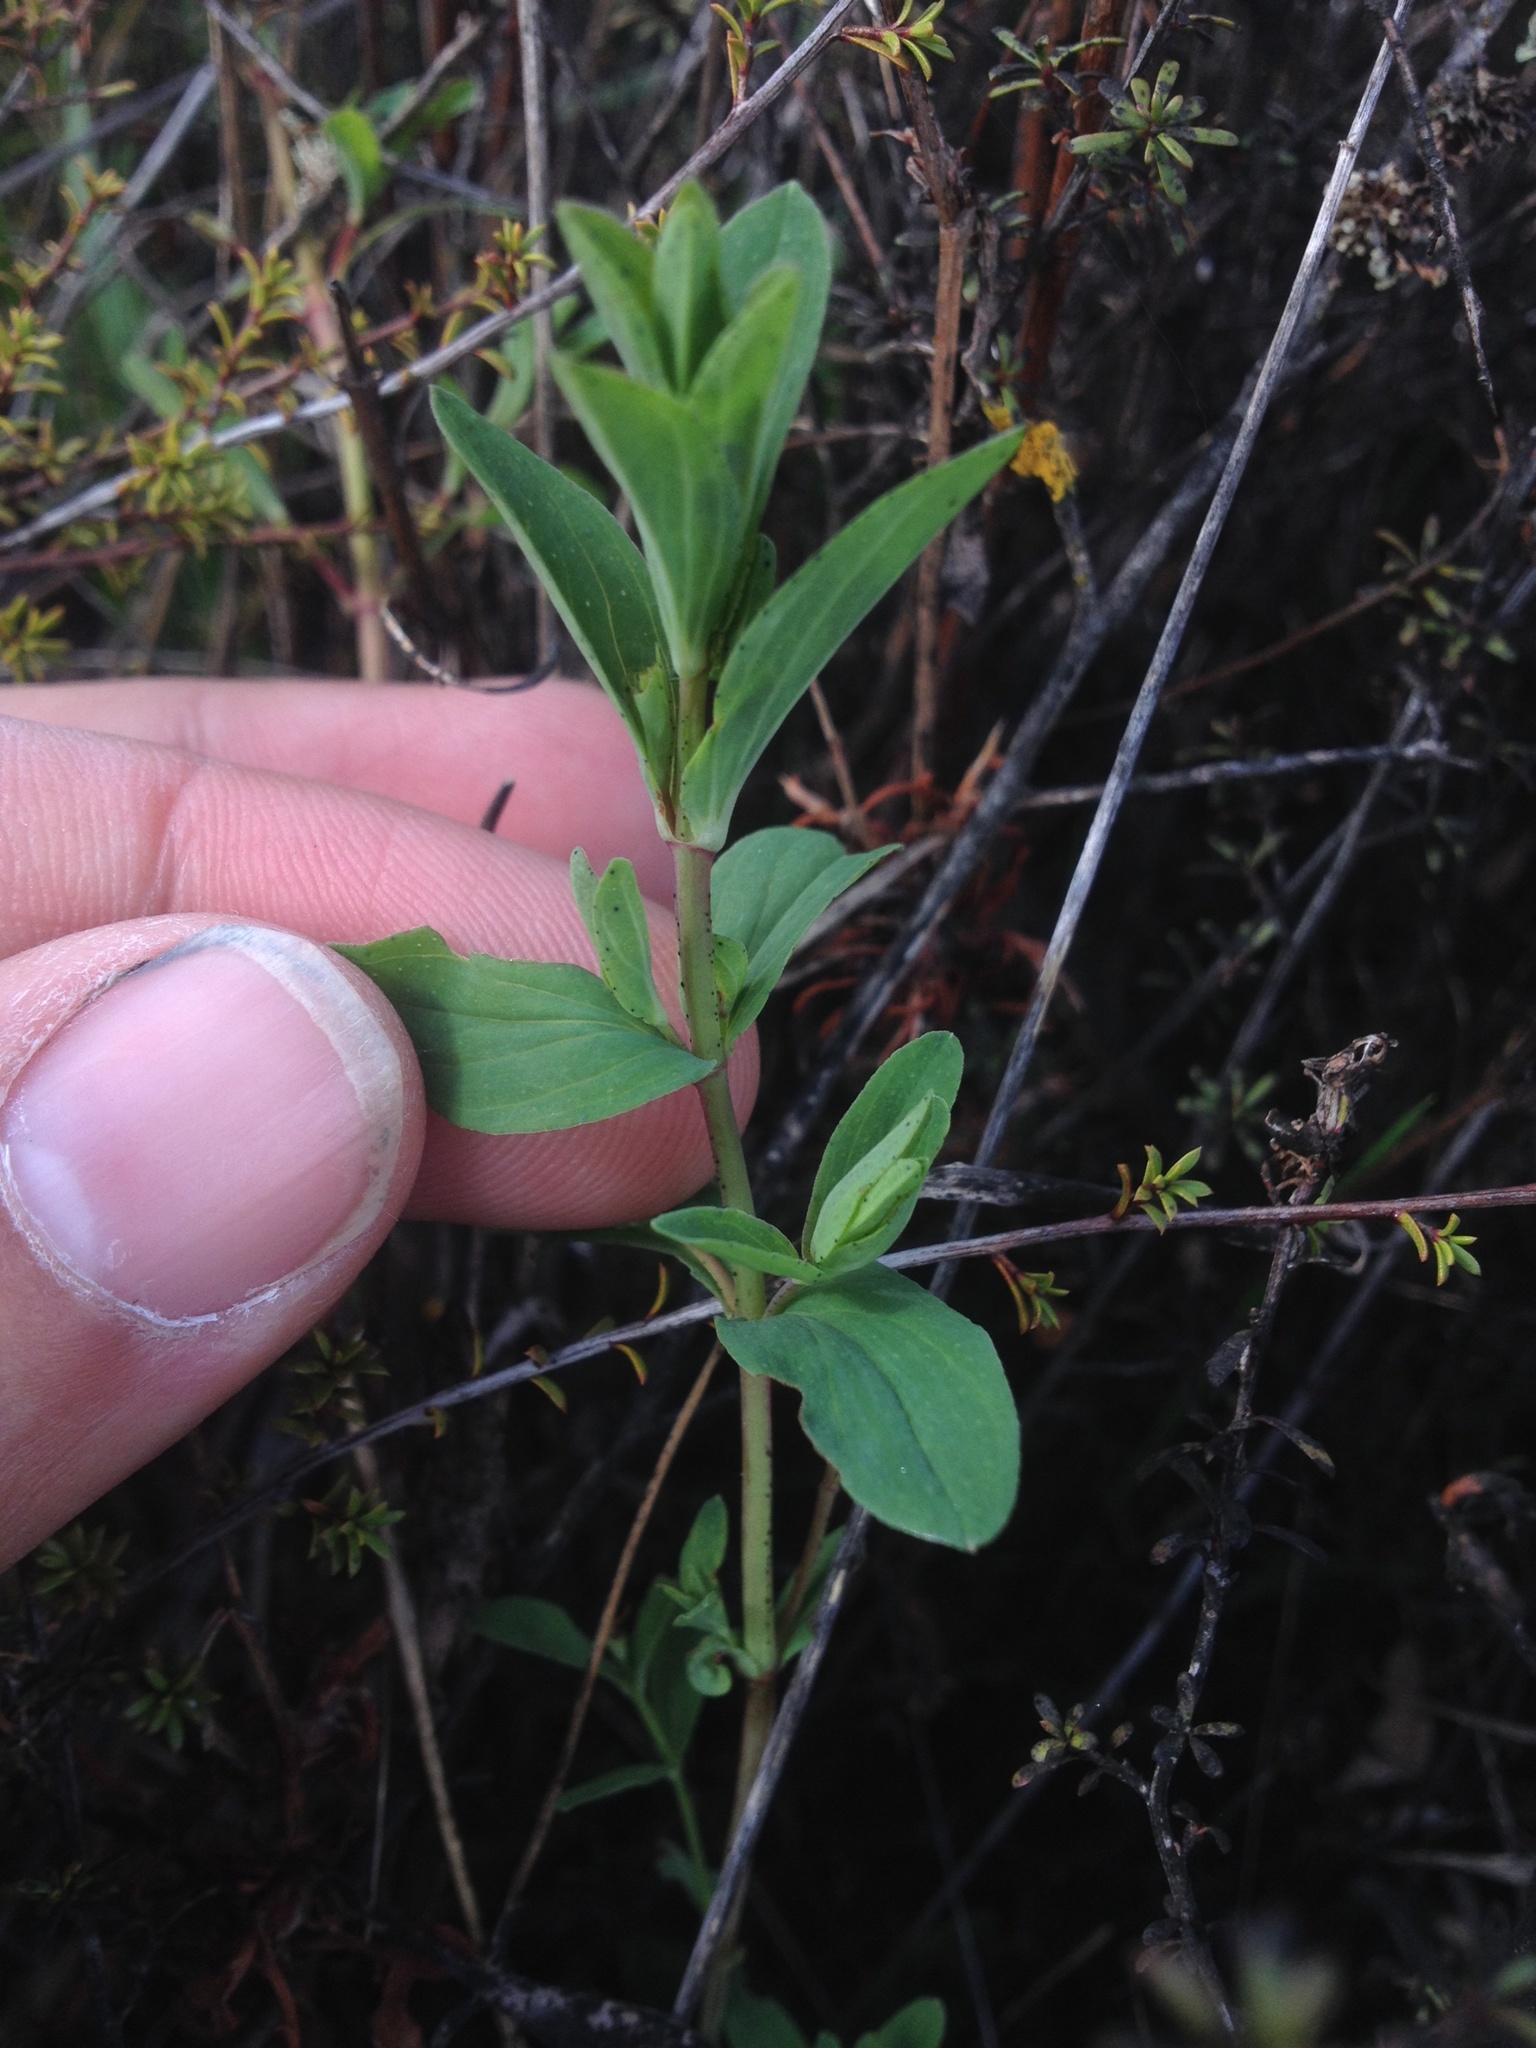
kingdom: Plantae
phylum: Tracheophyta
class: Magnoliopsida
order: Malpighiales
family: Hypericaceae
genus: Hypericum
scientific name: Hypericum perforatum
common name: Common st. johnswort
